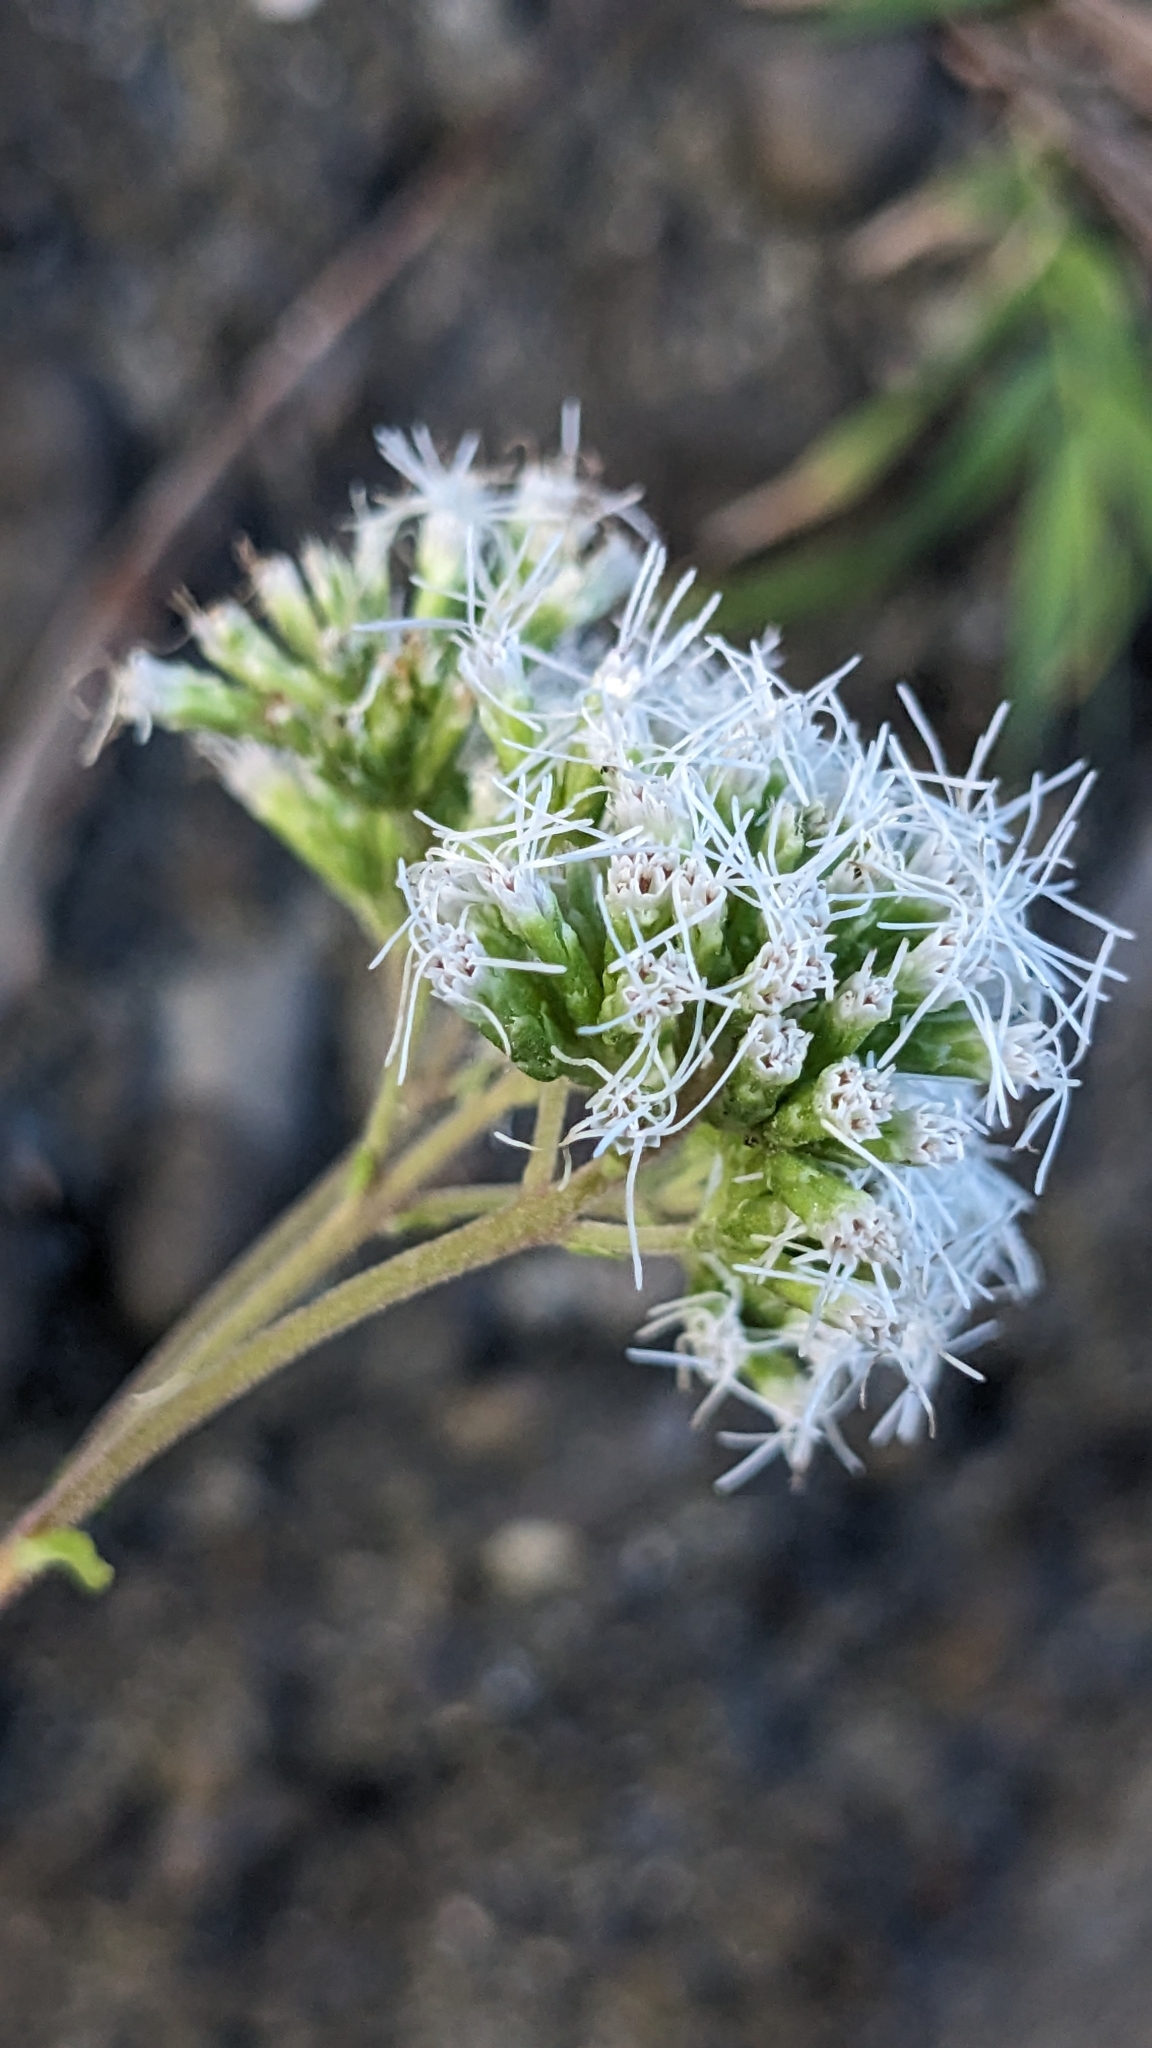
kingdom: Plantae
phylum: Tracheophyta
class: Magnoliopsida
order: Asterales
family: Asteraceae
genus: Eupatorium
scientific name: Eupatorium hualienense
